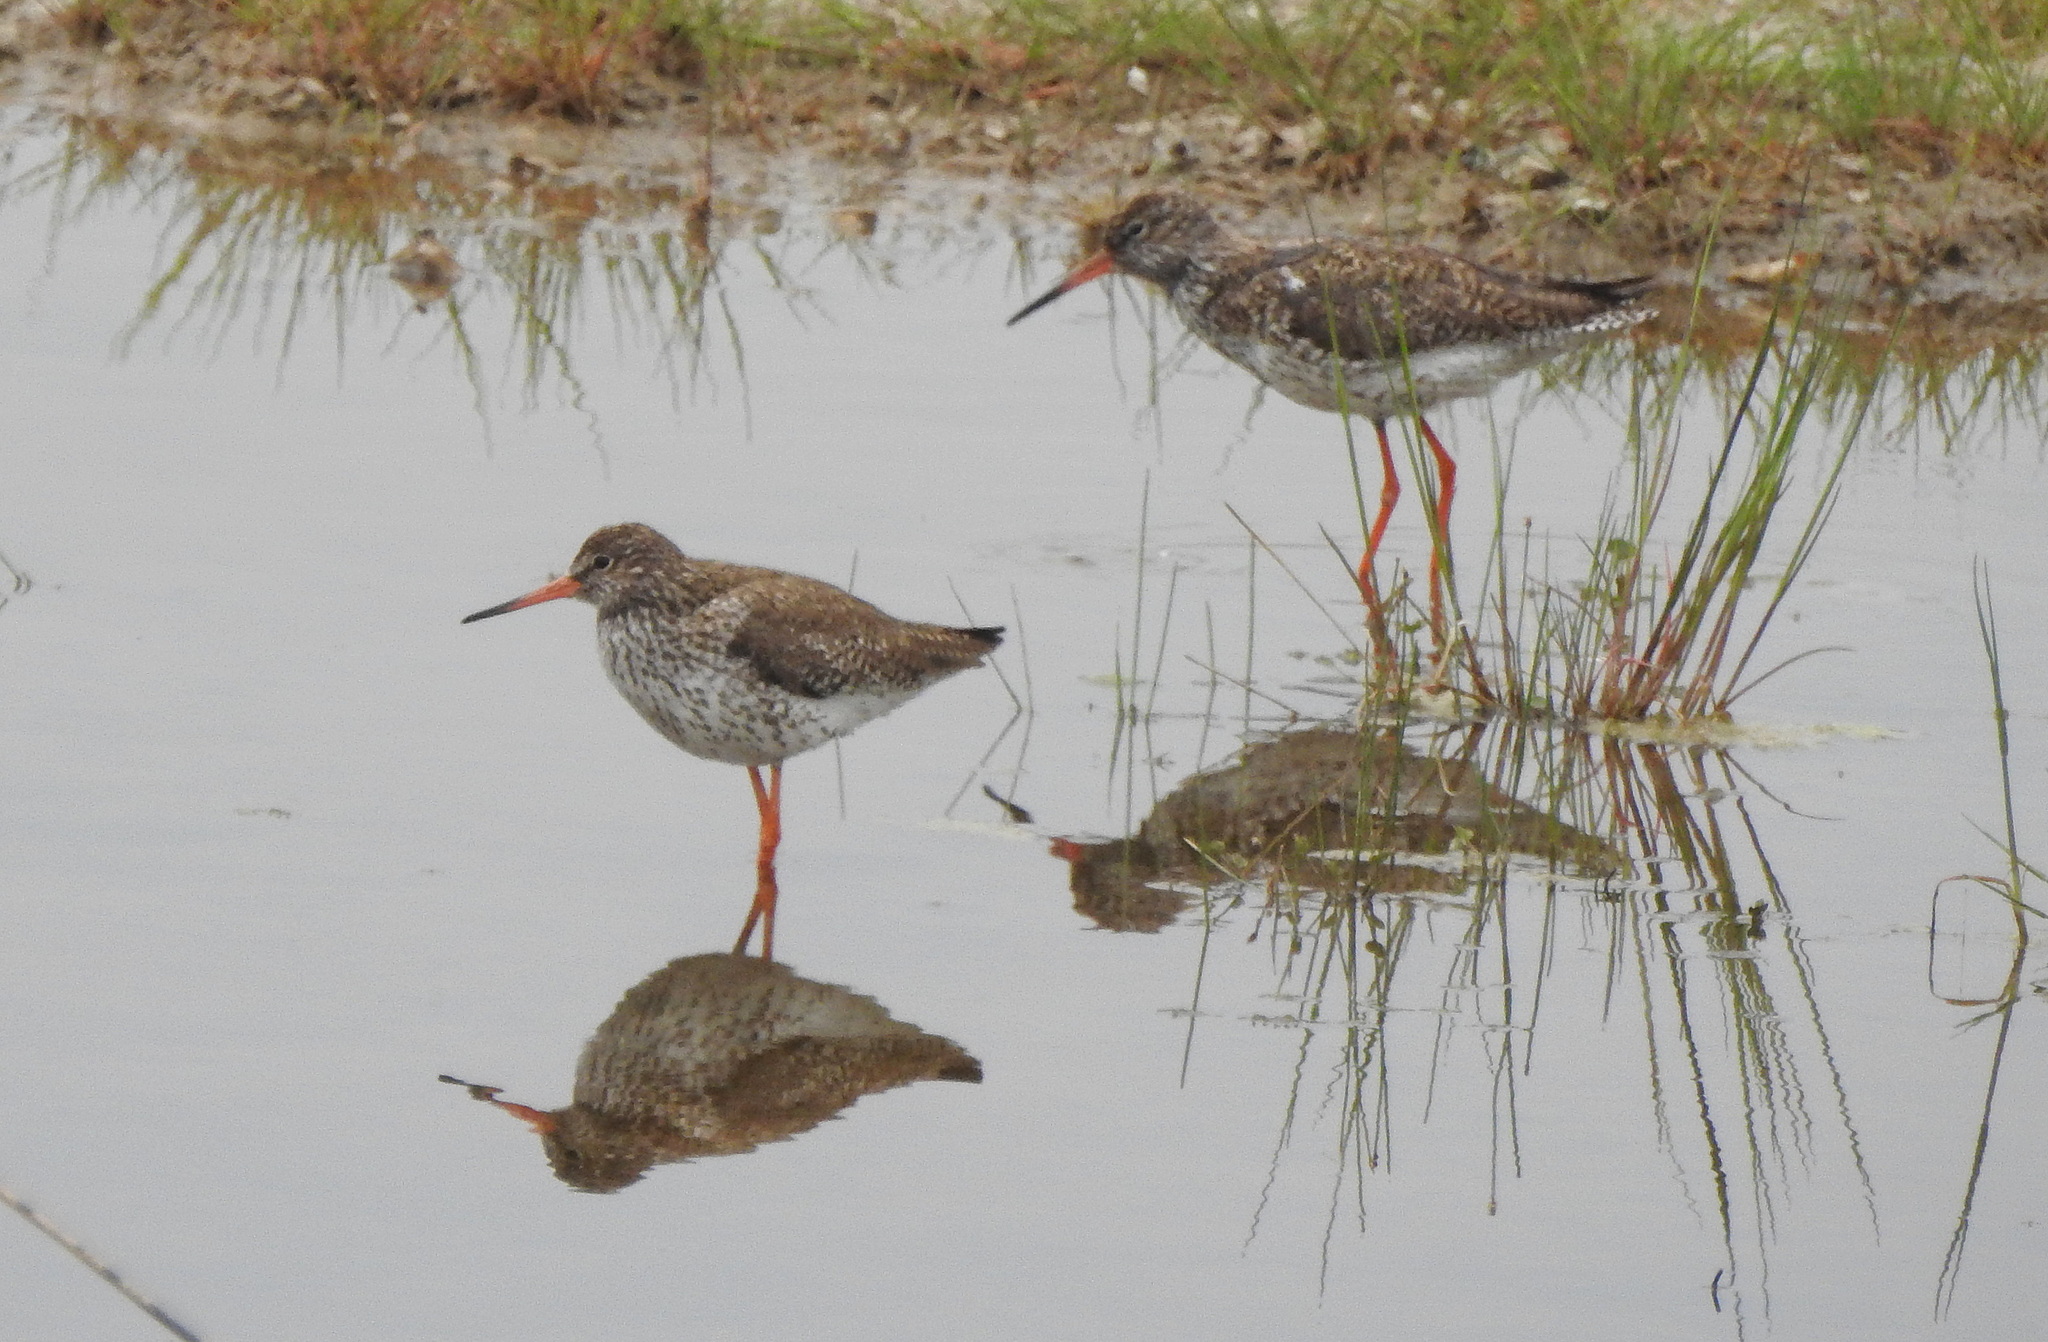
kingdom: Animalia
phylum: Chordata
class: Aves
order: Charadriiformes
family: Scolopacidae
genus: Tringa
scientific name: Tringa totanus
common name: Common redshank
